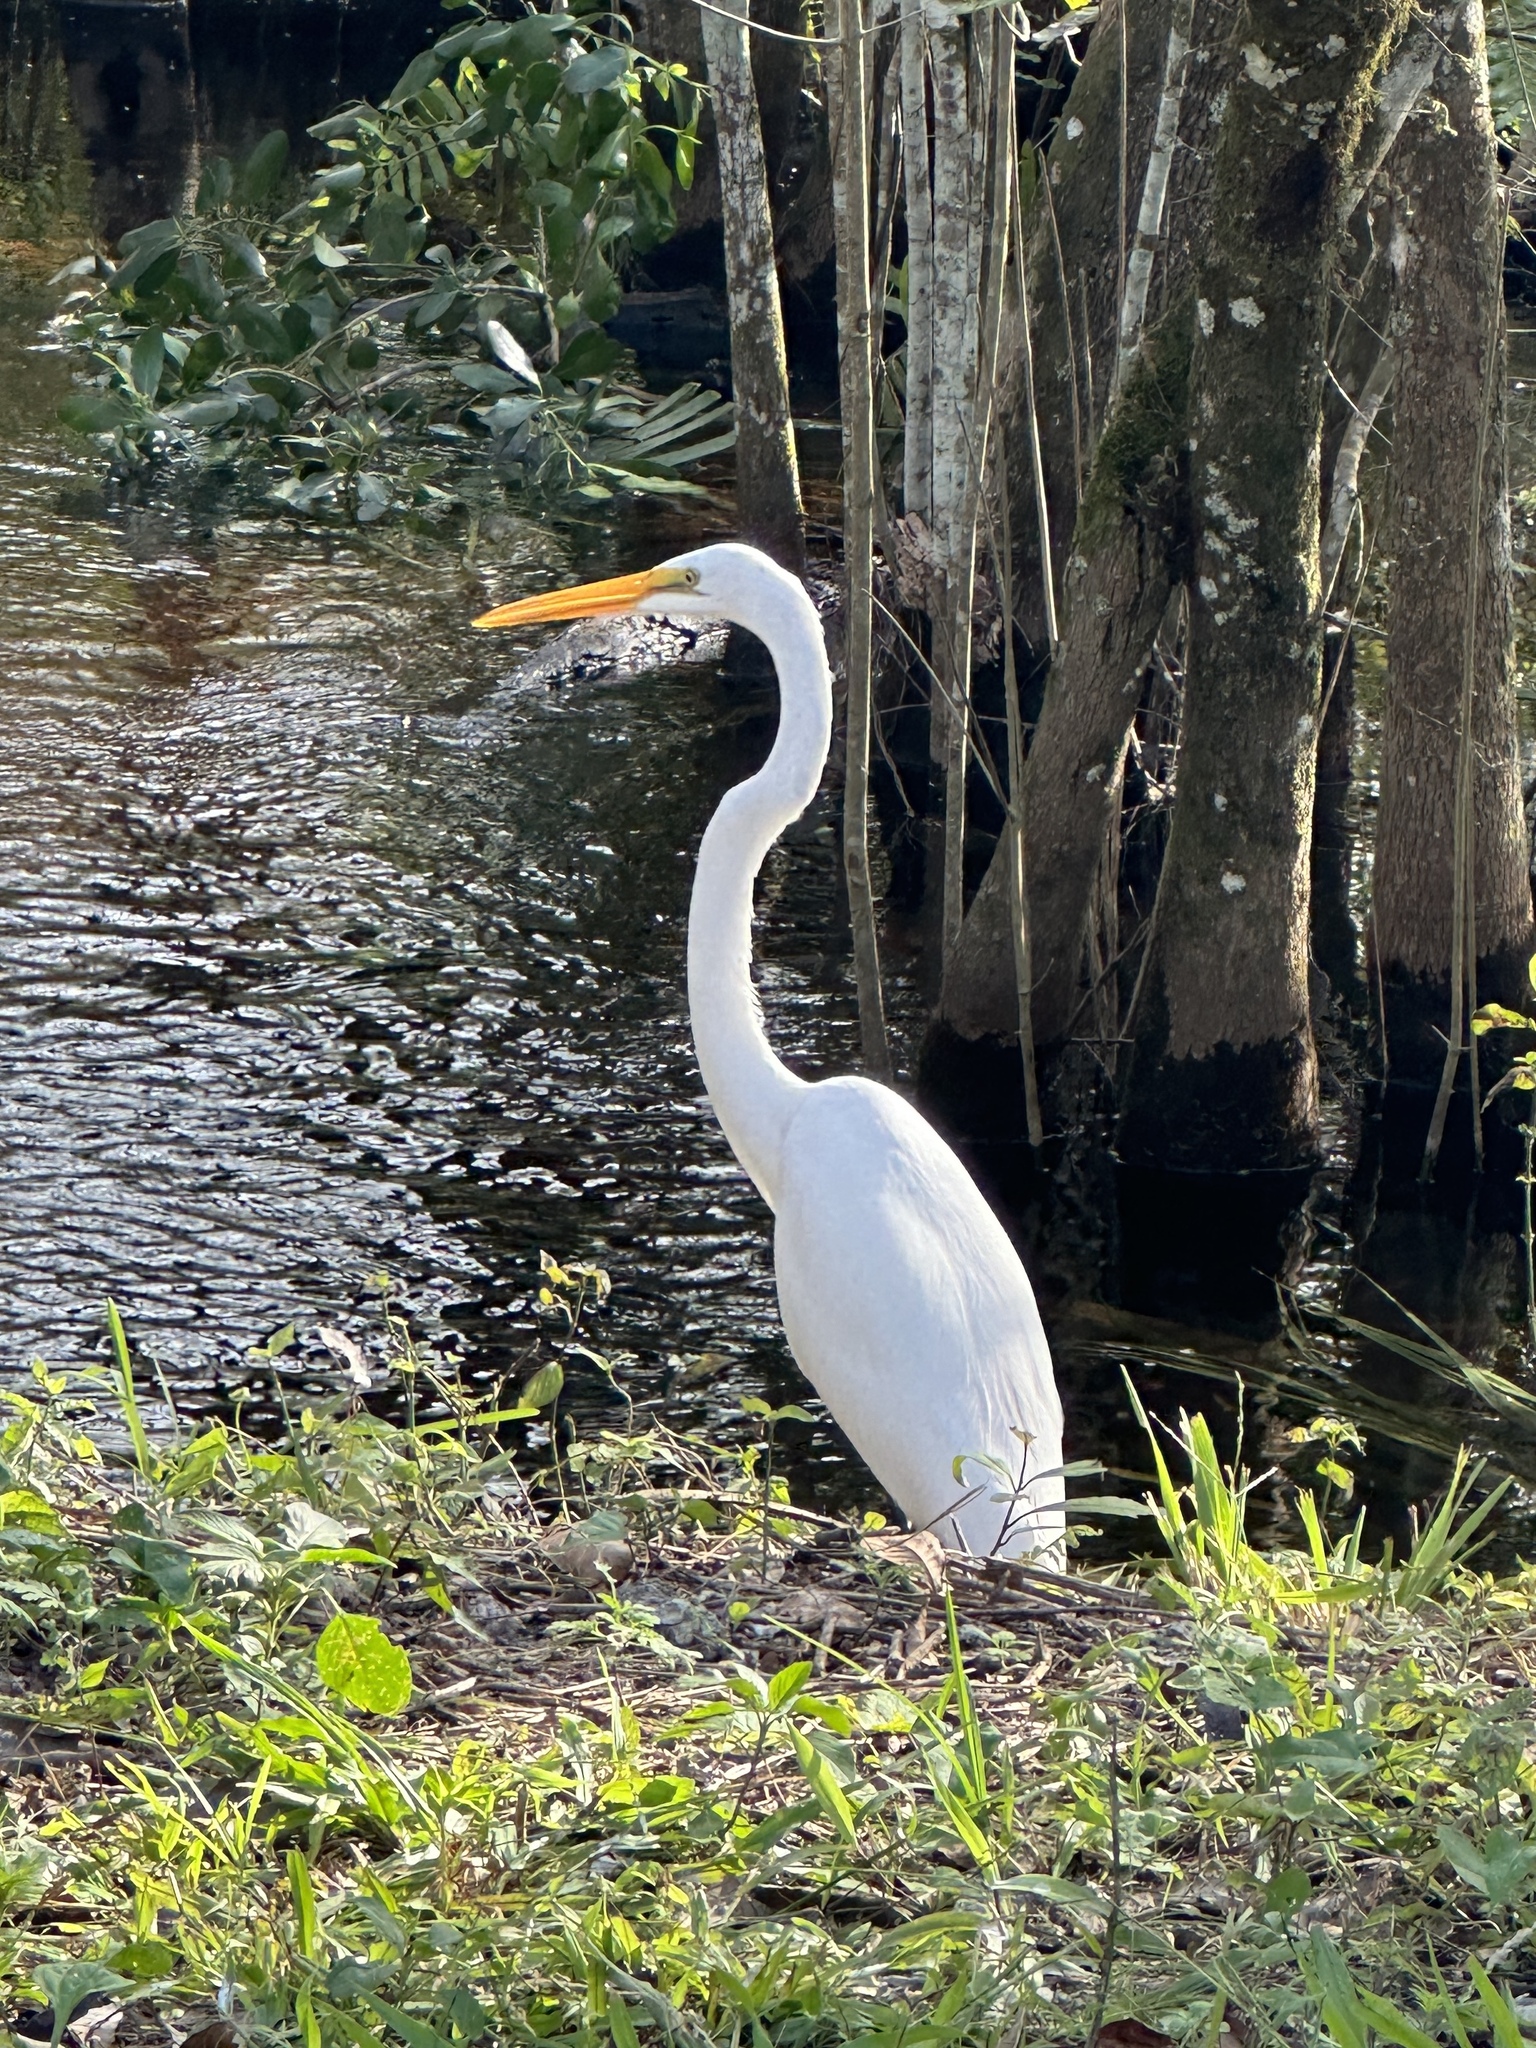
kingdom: Animalia
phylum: Chordata
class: Aves
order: Pelecaniformes
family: Ardeidae
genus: Ardea
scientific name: Ardea alba
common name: Great egret
